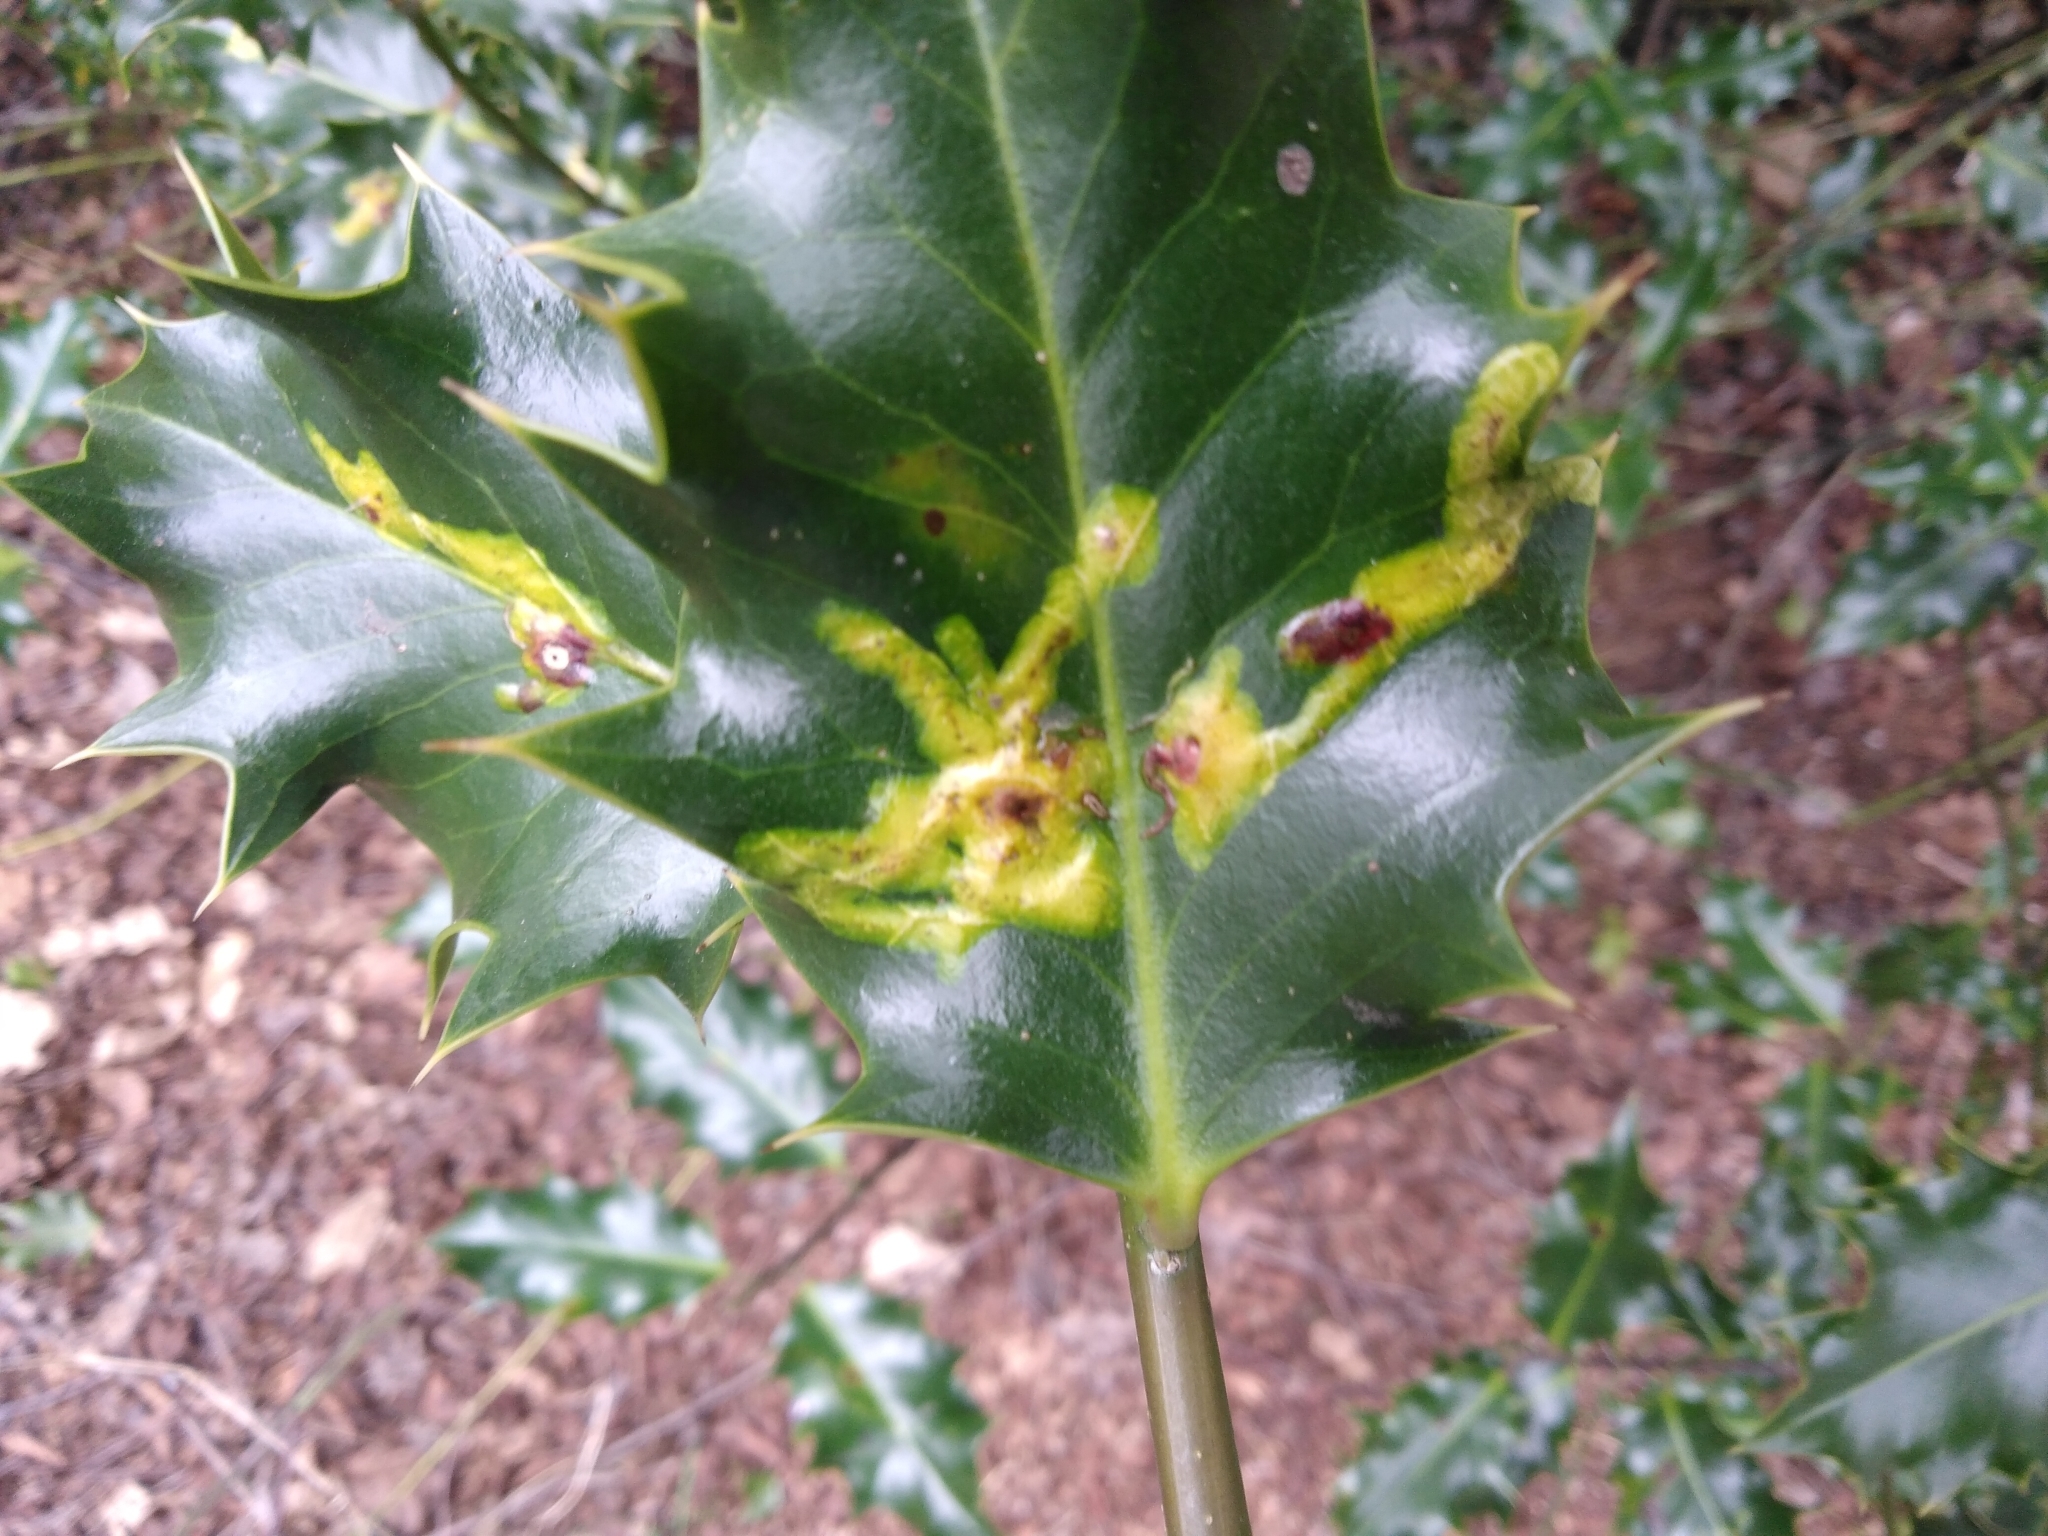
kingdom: Animalia
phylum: Arthropoda
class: Insecta
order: Diptera
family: Agromyzidae
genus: Phytomyza
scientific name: Phytomyza ilicis
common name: Holly leafminer
